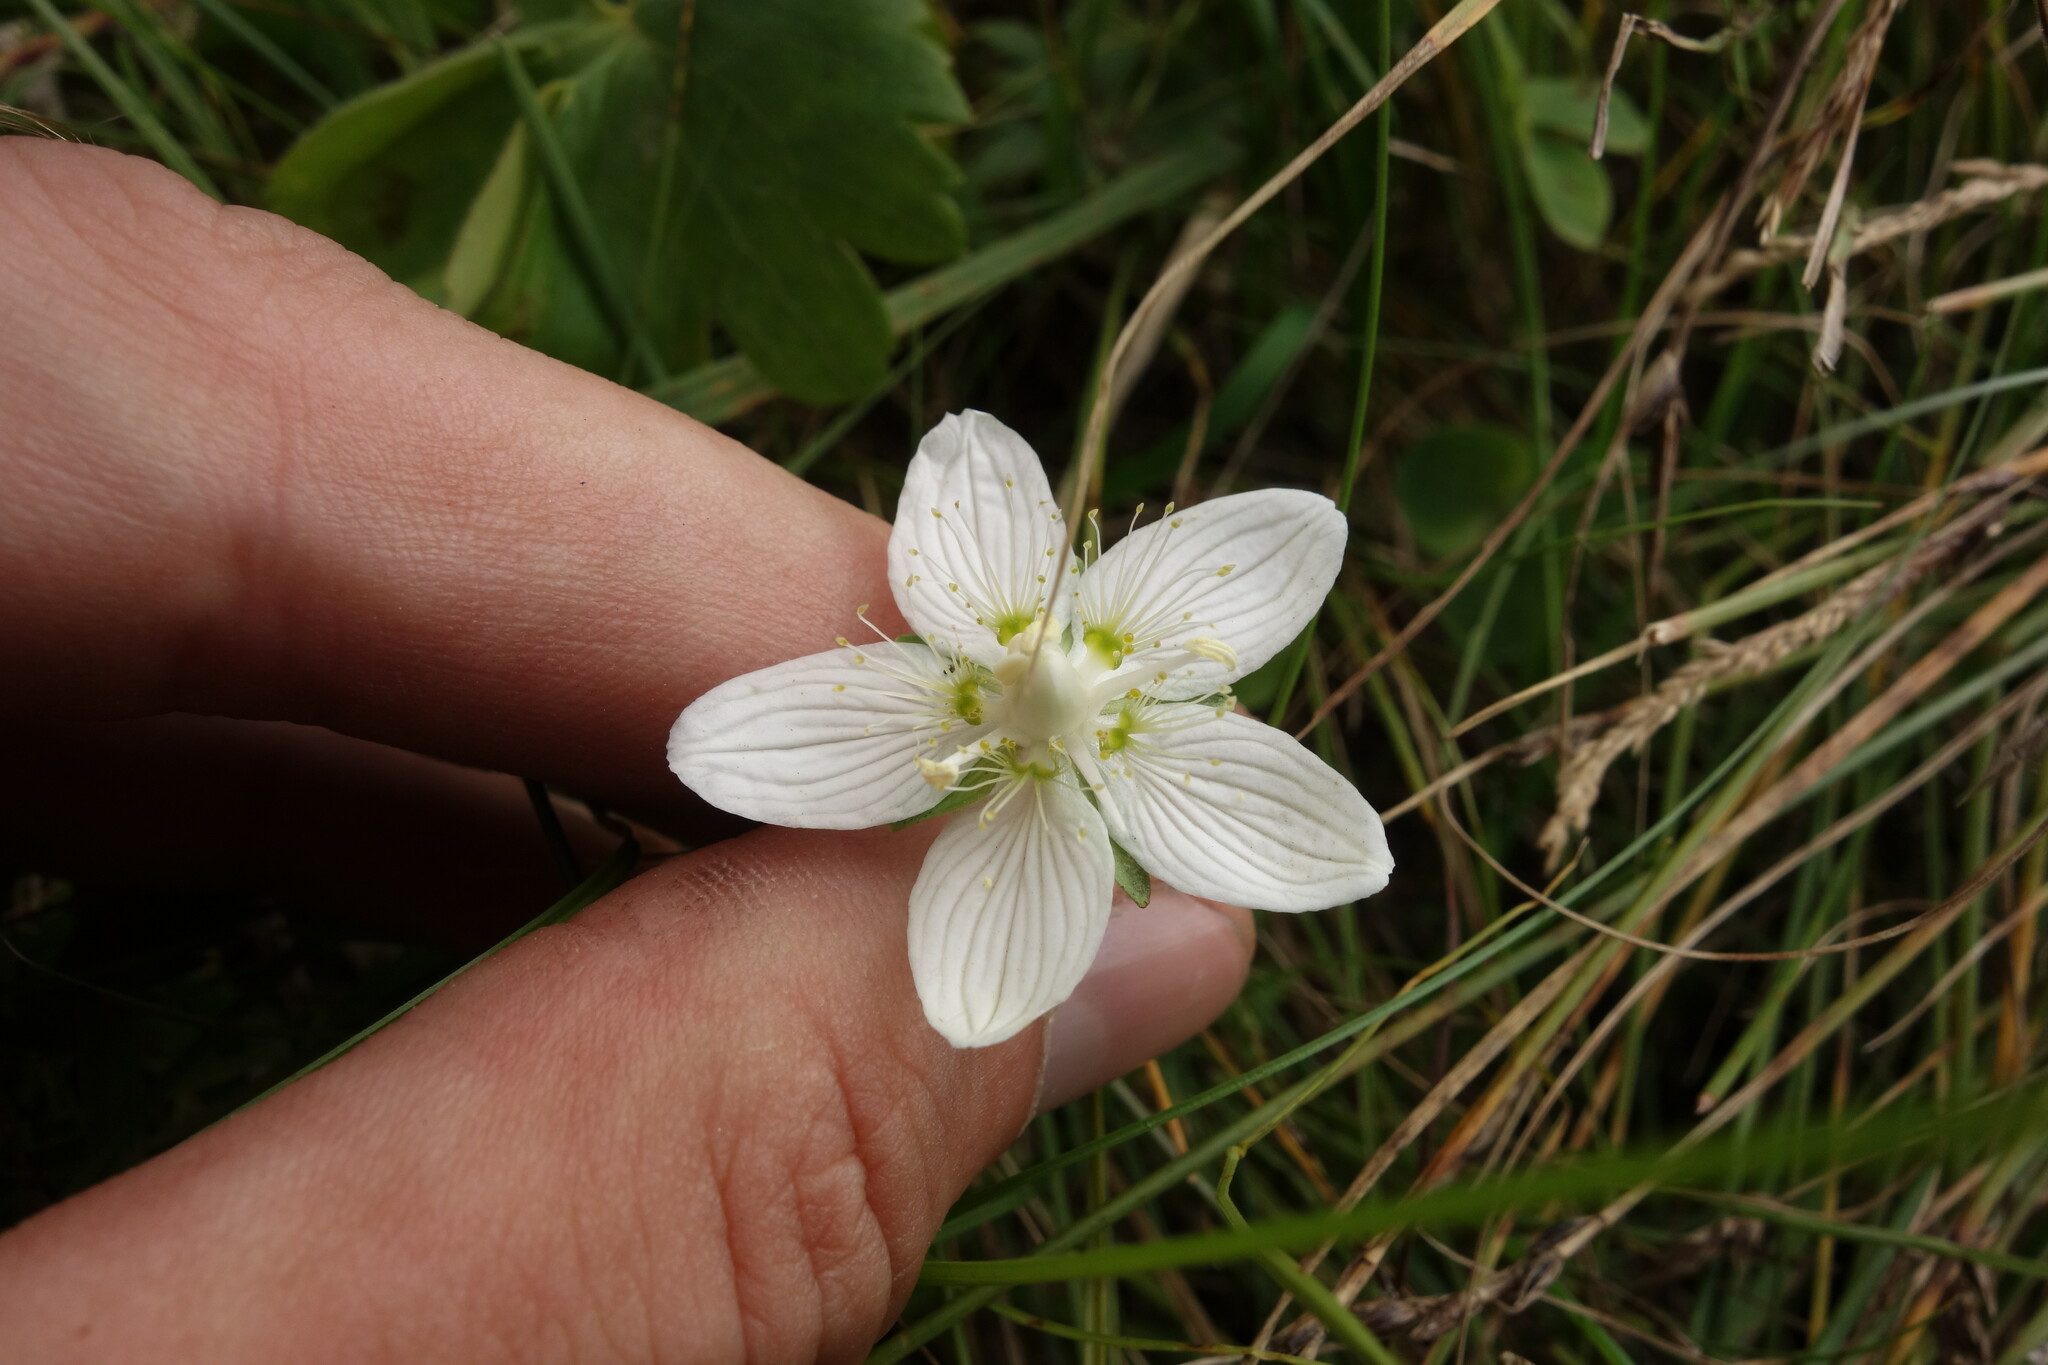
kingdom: Plantae
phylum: Tracheophyta
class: Magnoliopsida
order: Celastrales
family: Parnassiaceae
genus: Parnassia
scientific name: Parnassia palustris
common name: Grass-of-parnassus
